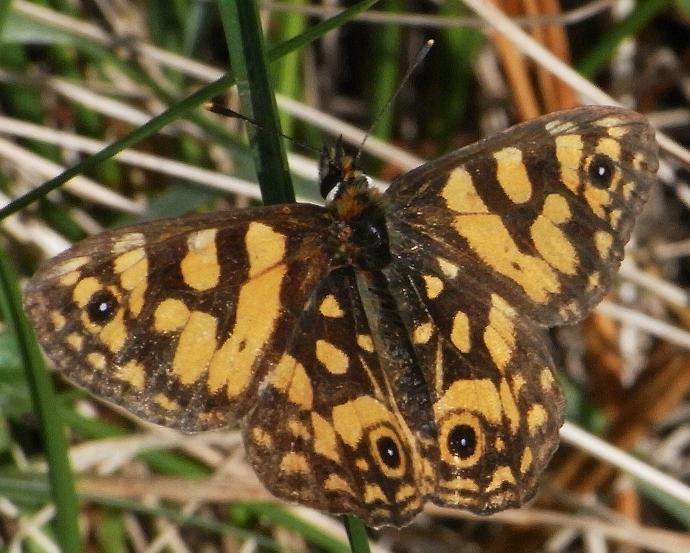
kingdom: Animalia
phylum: Arthropoda
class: Insecta
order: Lepidoptera
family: Nymphalidae
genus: Oreixenica
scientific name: Oreixenica lathoniella
